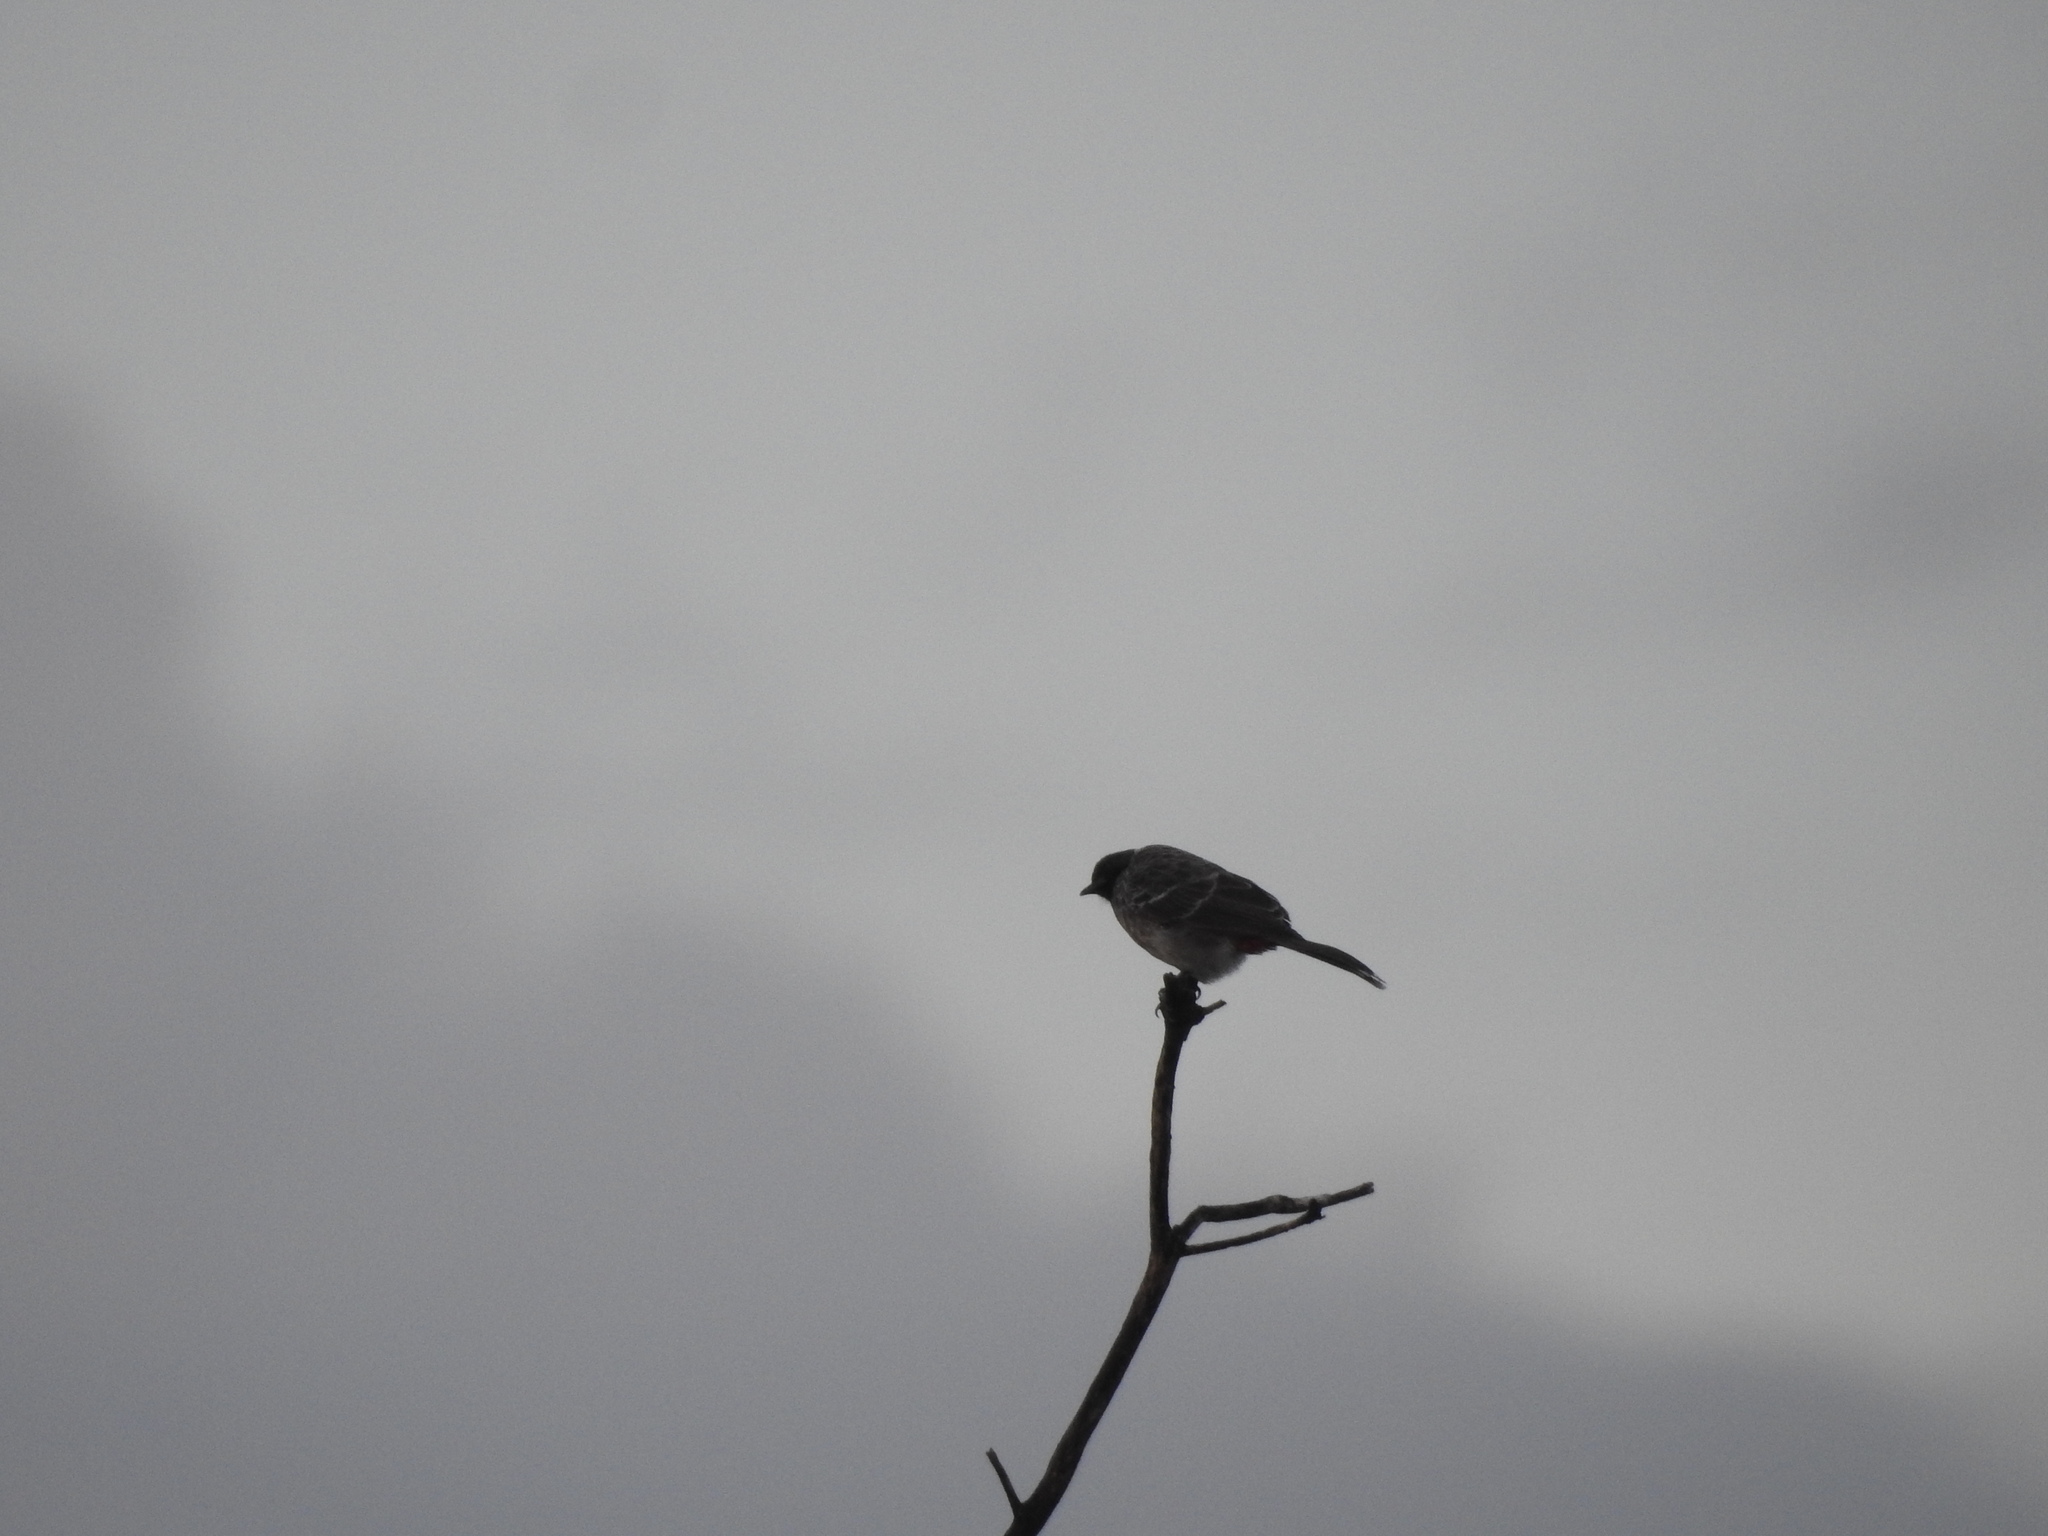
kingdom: Animalia
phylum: Chordata
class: Aves
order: Passeriformes
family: Pycnonotidae
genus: Pycnonotus
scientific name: Pycnonotus cafer
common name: Red-vented bulbul
